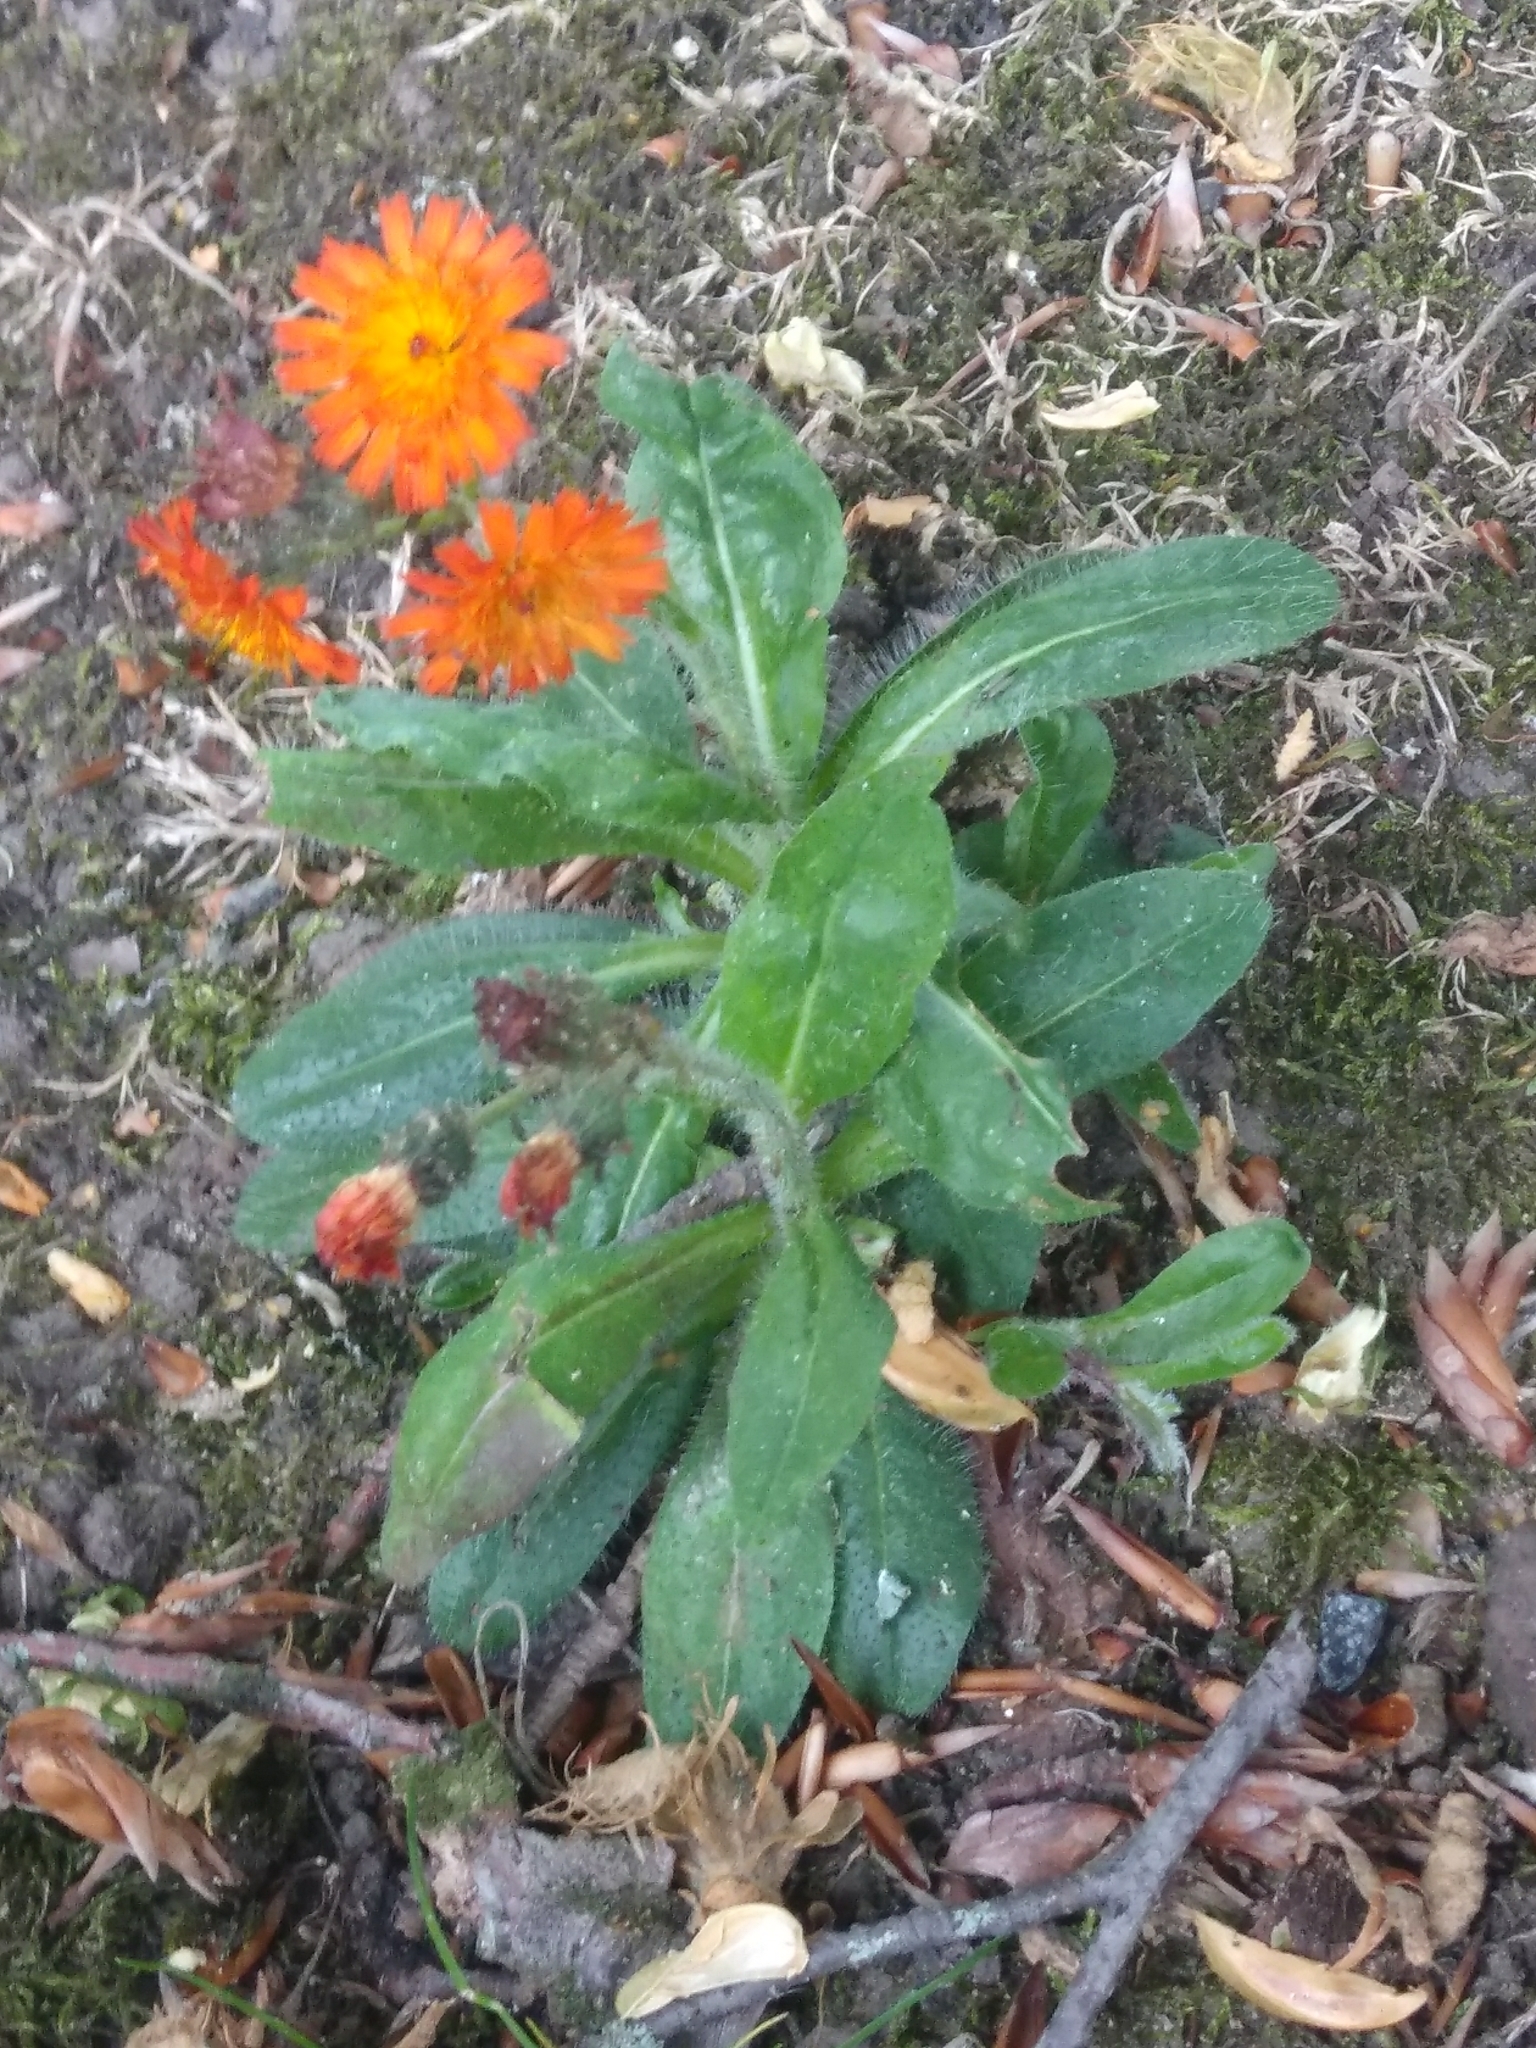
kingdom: Plantae
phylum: Tracheophyta
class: Magnoliopsida
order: Asterales
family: Asteraceae
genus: Pilosella
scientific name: Pilosella aurantiaca
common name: Fox-and-cubs
